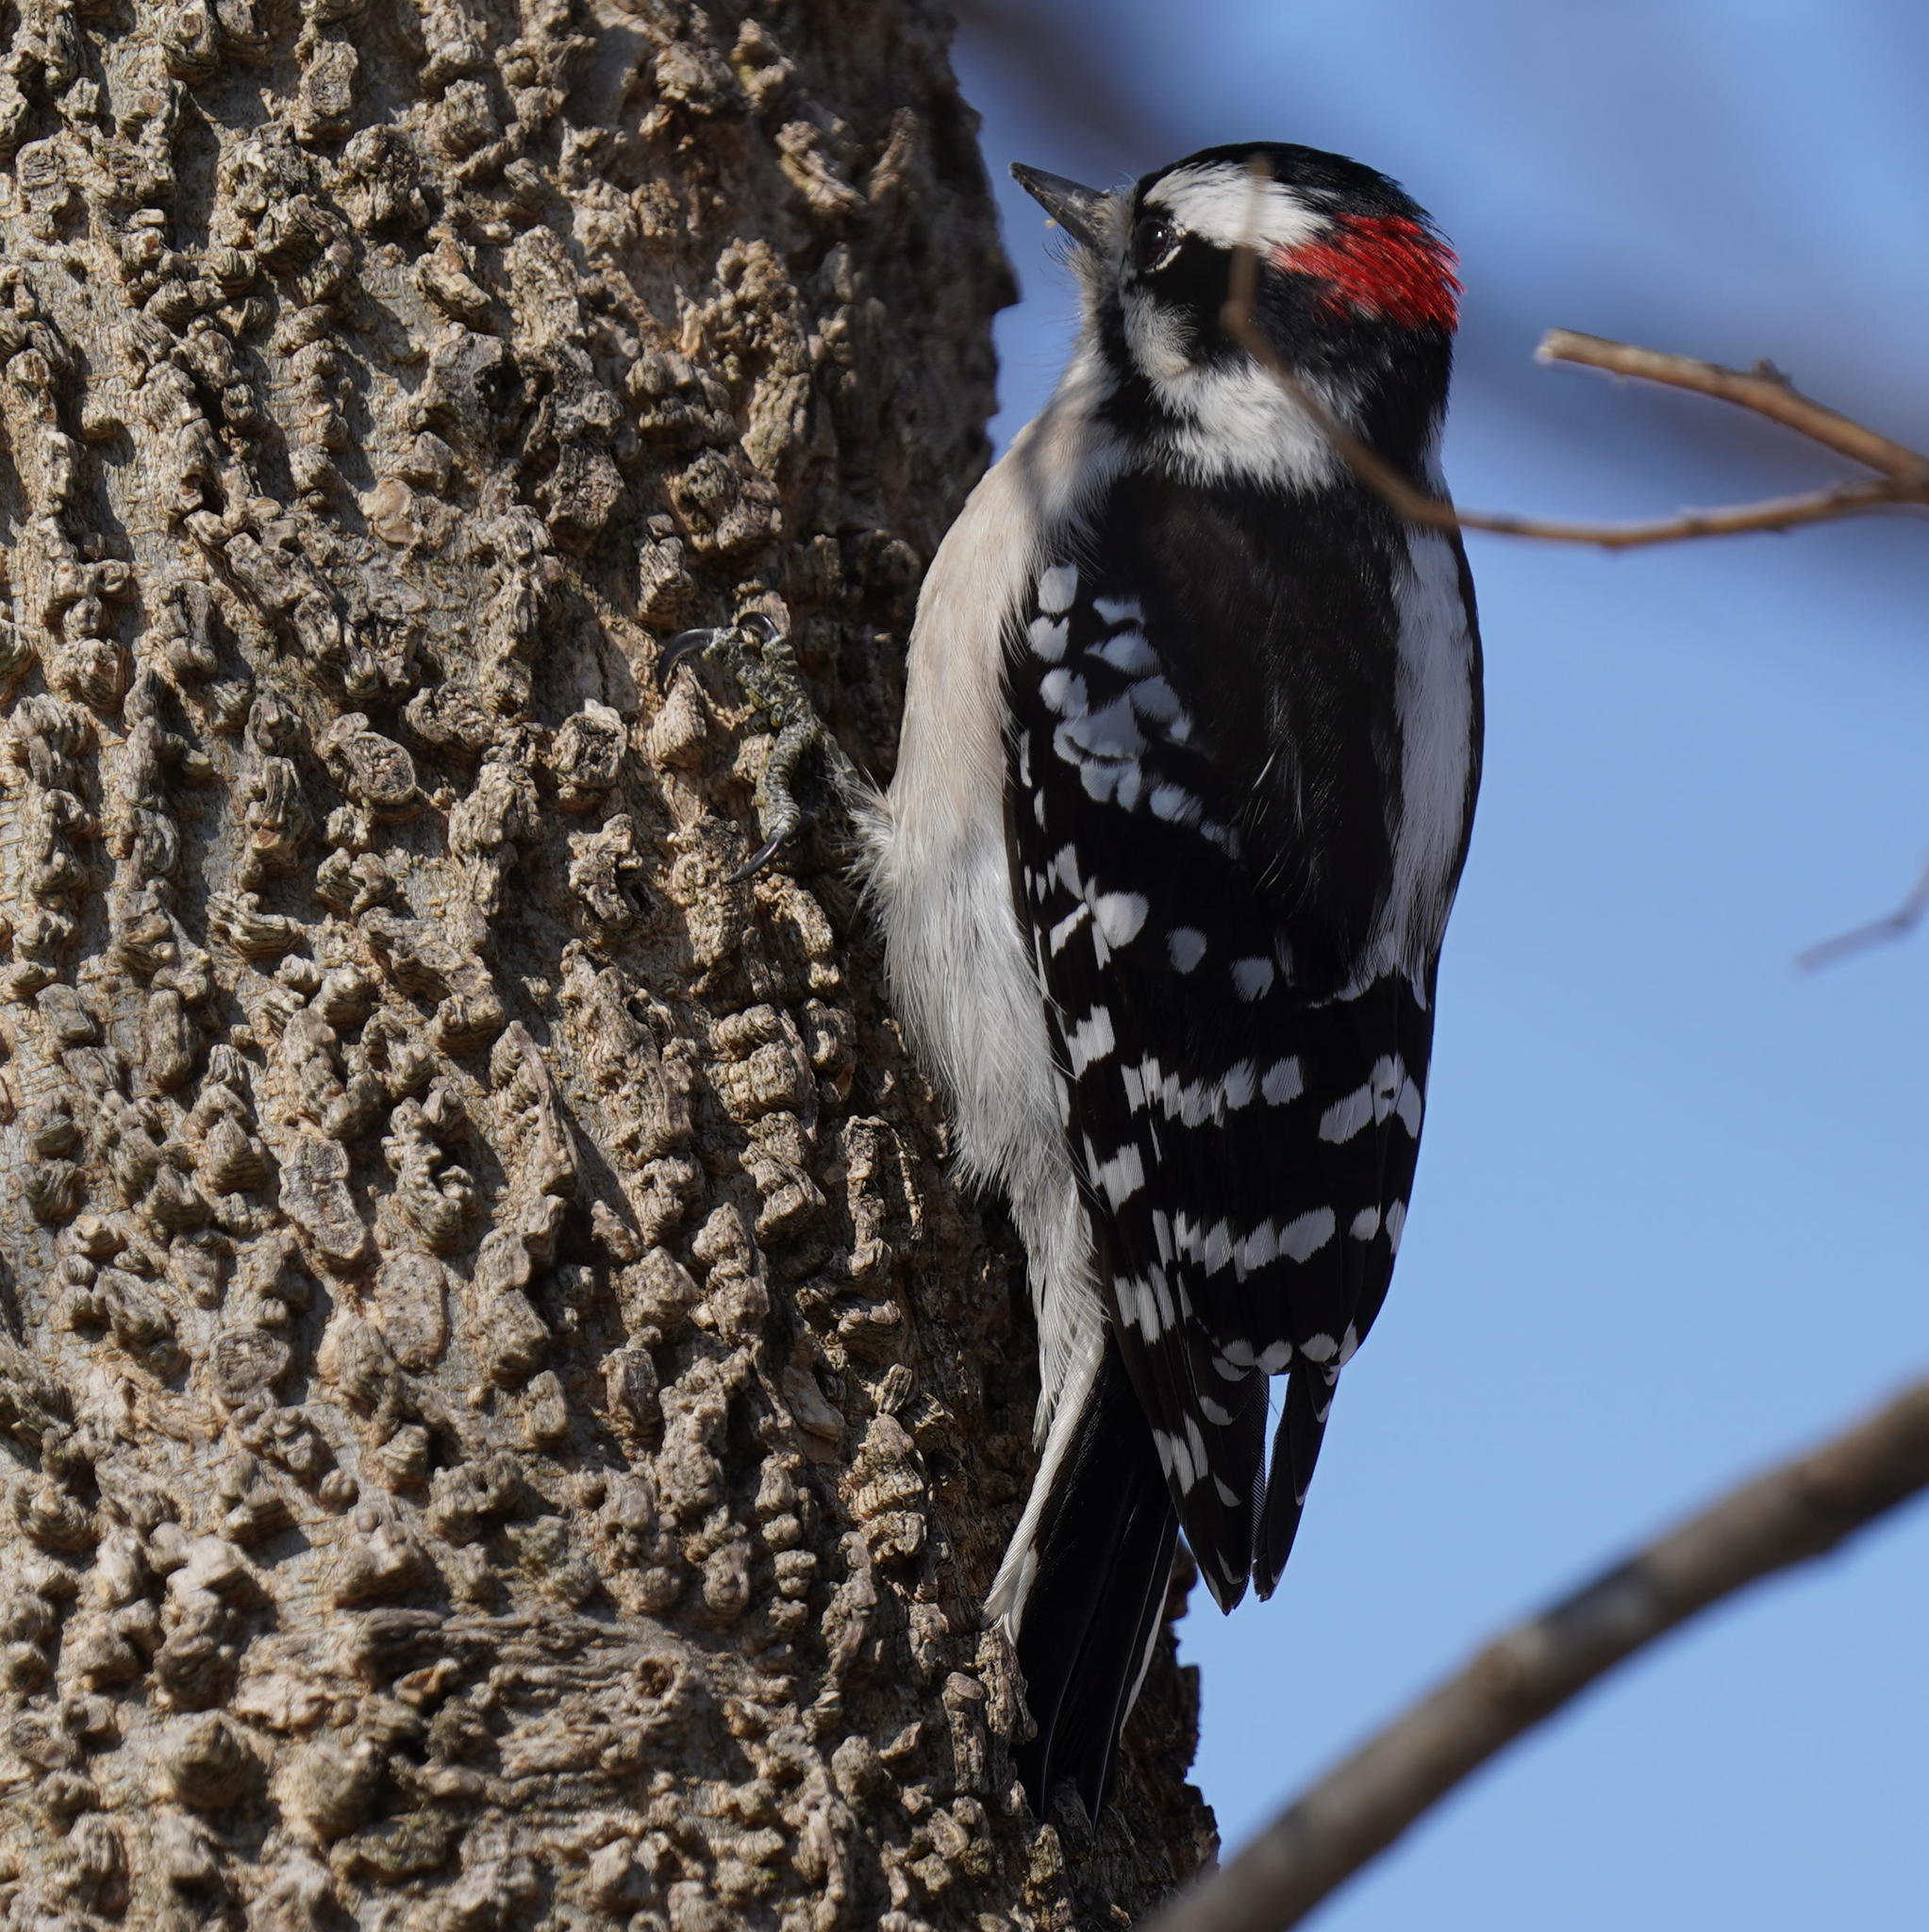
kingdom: Animalia
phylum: Chordata
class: Aves
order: Piciformes
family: Picidae
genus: Dryobates
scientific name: Dryobates pubescens
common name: Downy woodpecker
